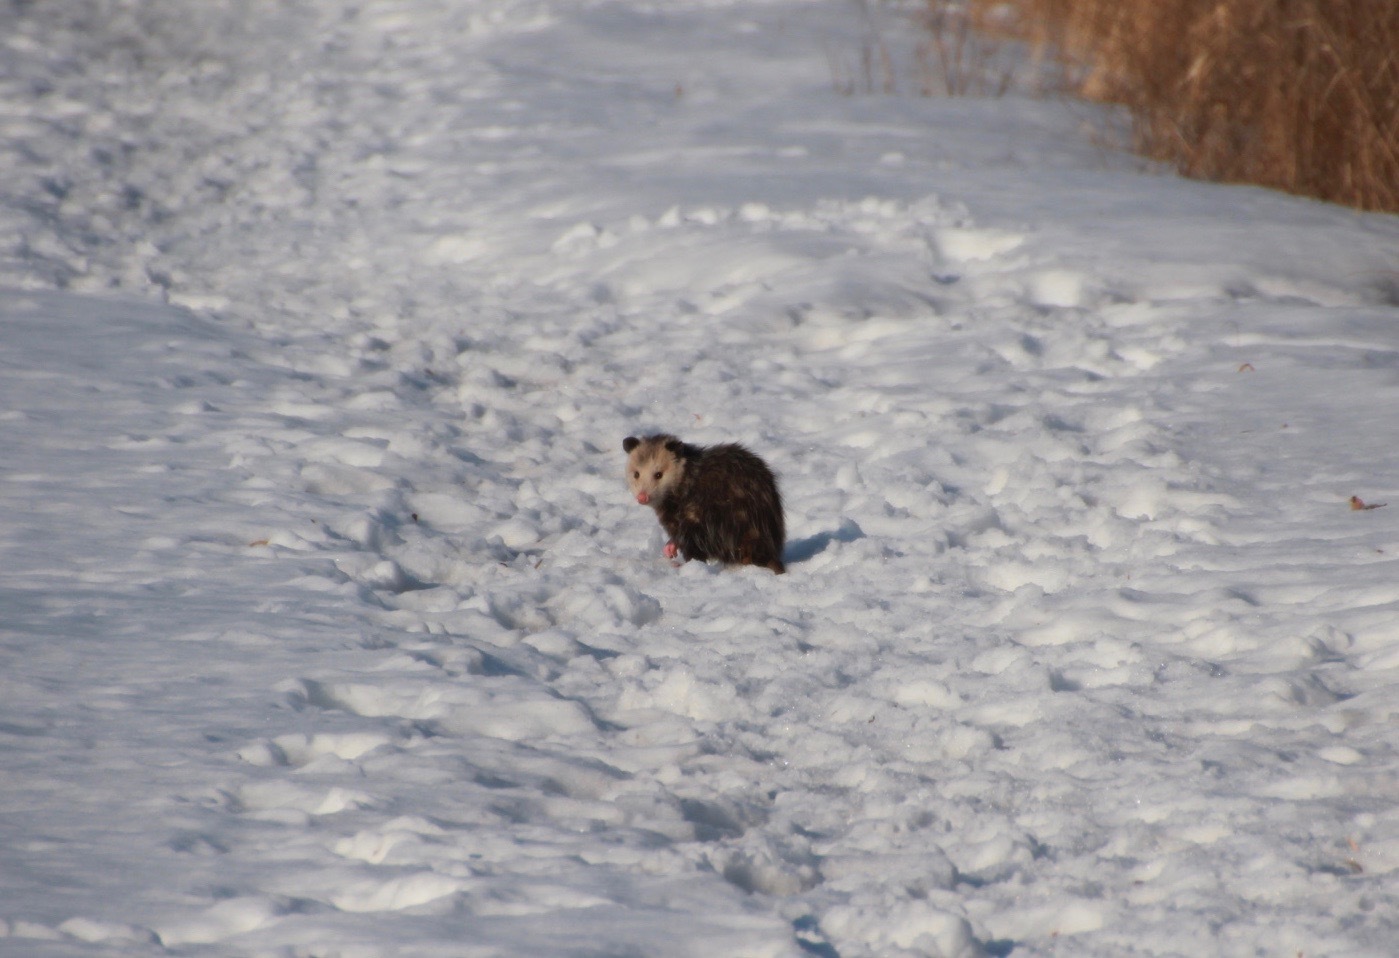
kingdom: Animalia
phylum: Chordata
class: Mammalia
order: Didelphimorphia
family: Didelphidae
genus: Didelphis
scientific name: Didelphis virginiana
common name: Virginia opossum
